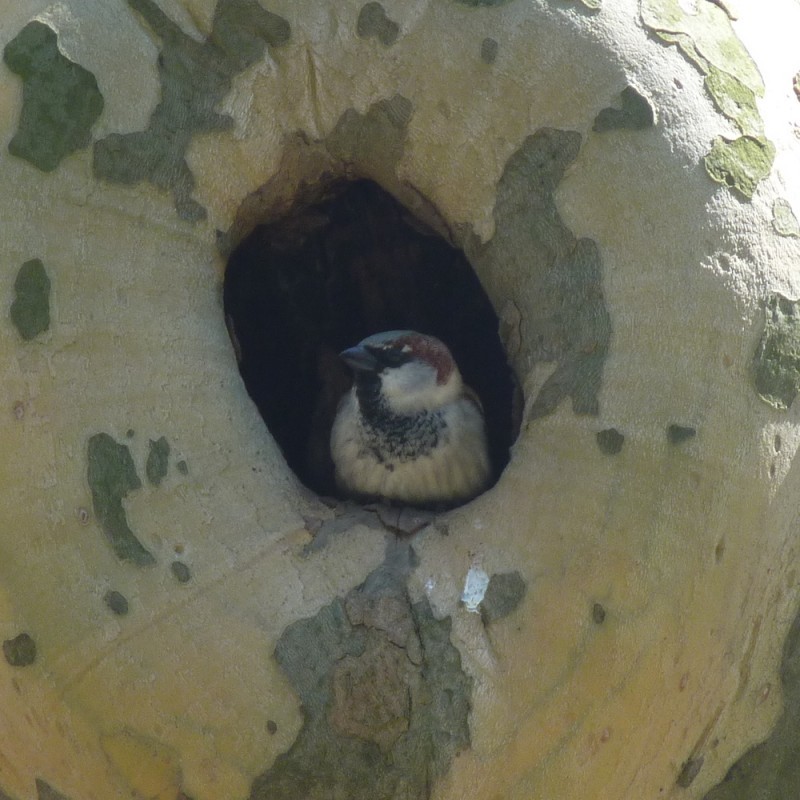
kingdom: Animalia
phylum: Chordata
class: Aves
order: Passeriformes
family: Passeridae
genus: Passer
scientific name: Passer domesticus
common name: House sparrow
